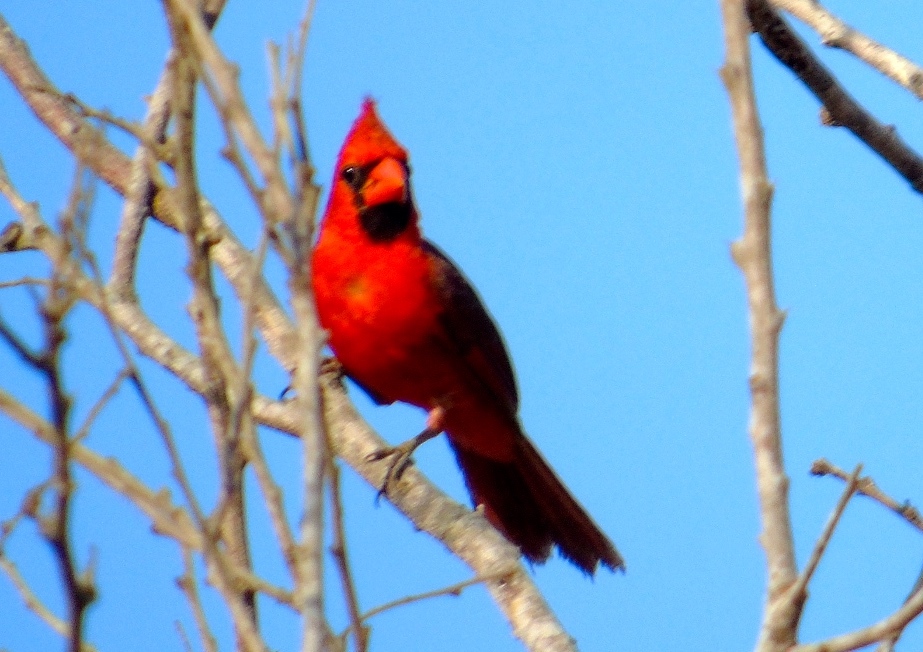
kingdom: Animalia
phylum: Chordata
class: Aves
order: Passeriformes
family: Cardinalidae
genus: Cardinalis
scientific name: Cardinalis cardinalis
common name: Northern cardinal
